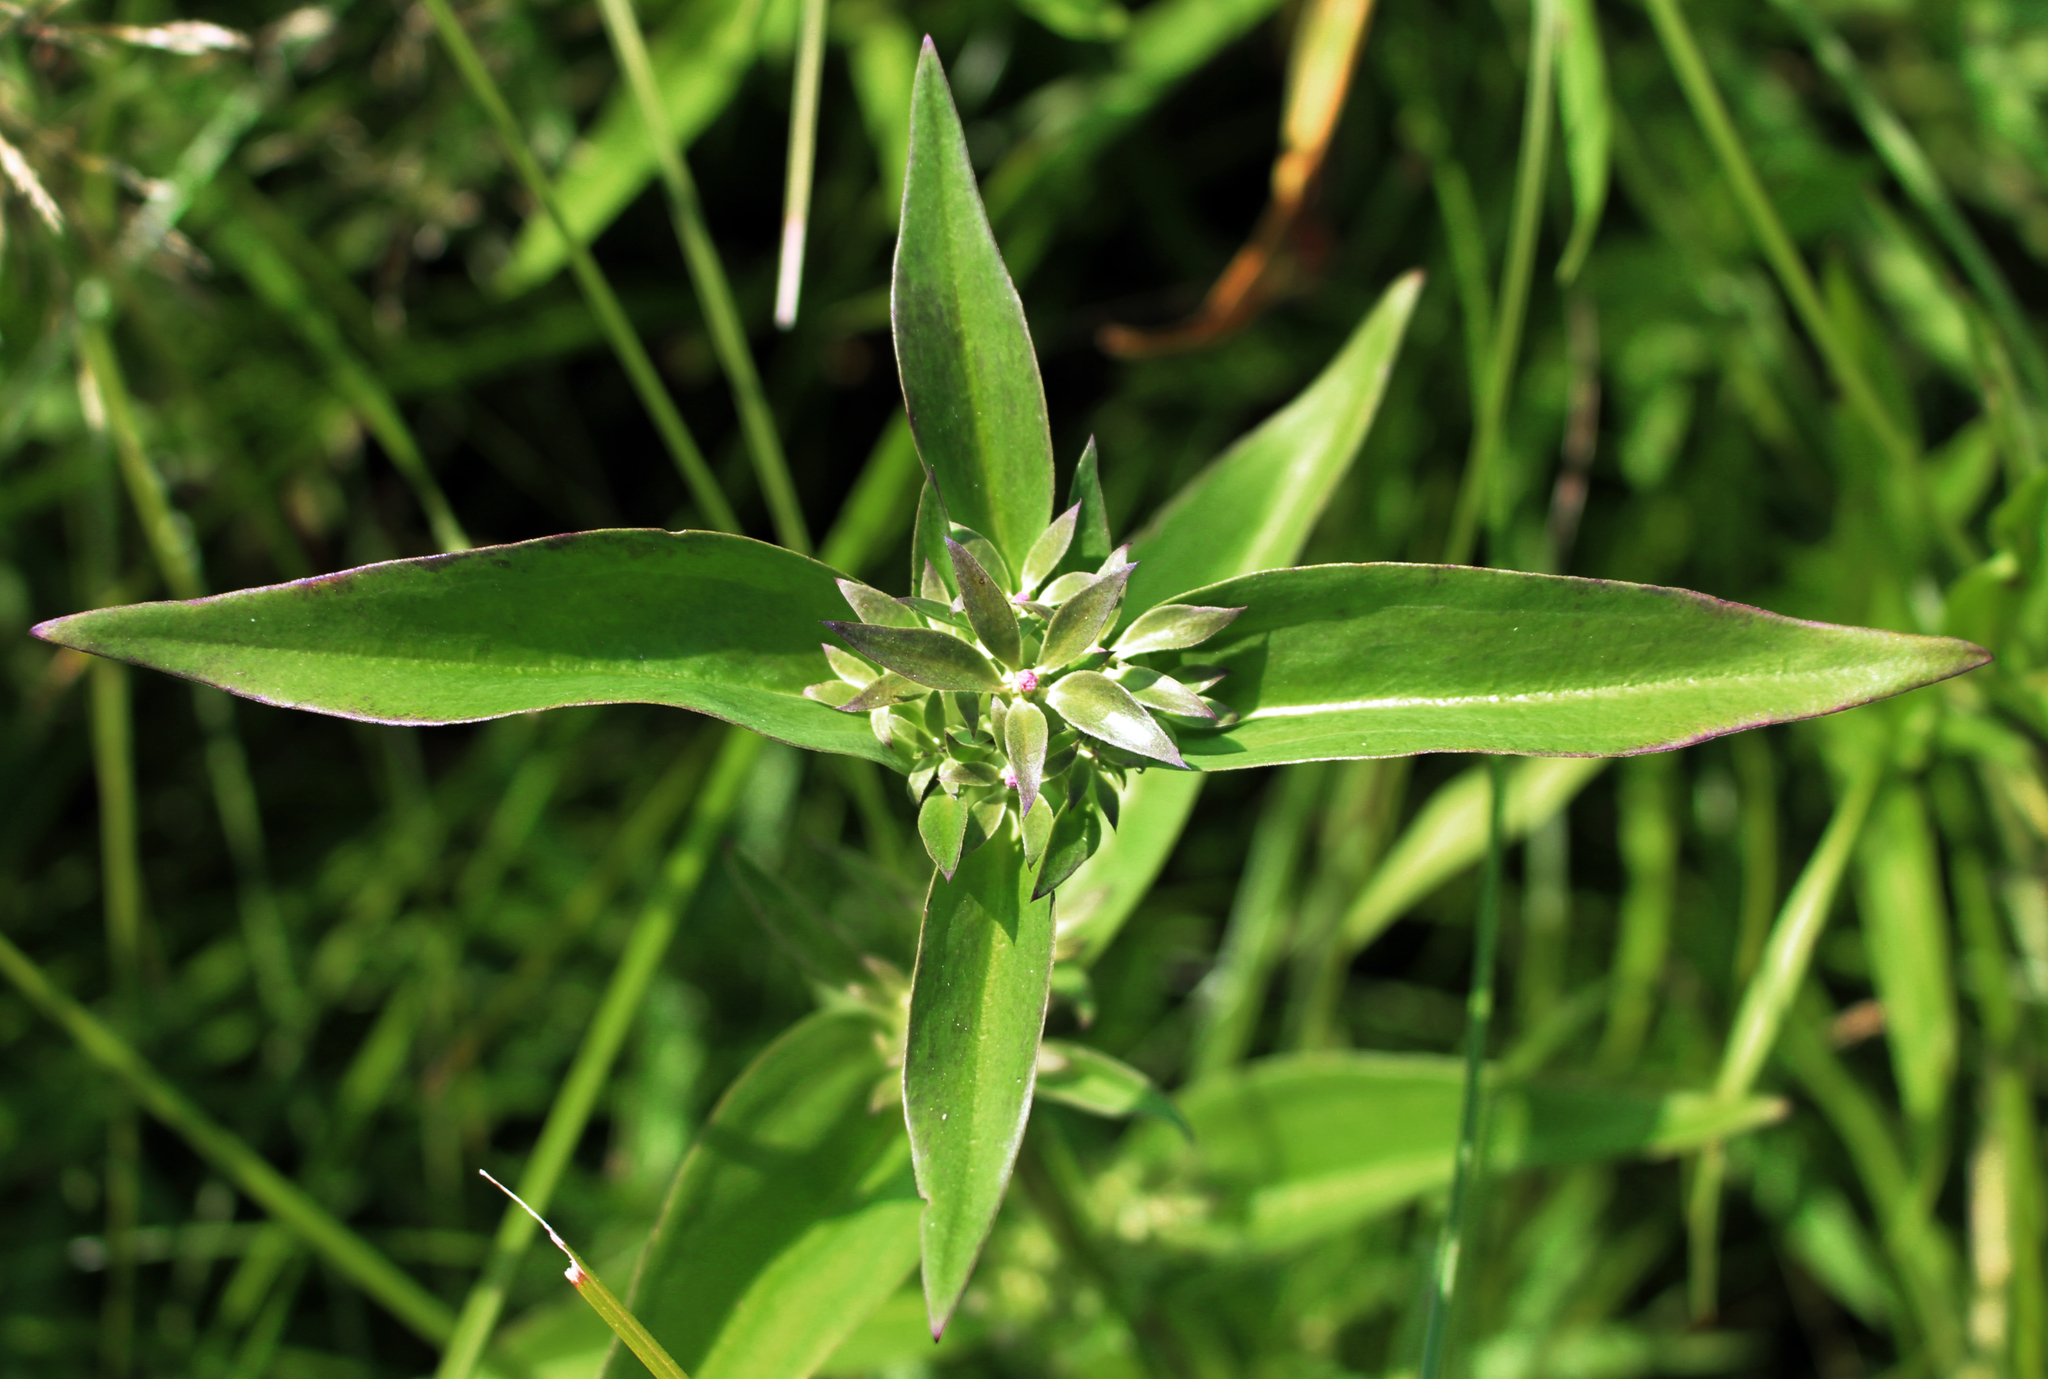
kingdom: Plantae
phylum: Tracheophyta
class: Magnoliopsida
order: Gentianales
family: Gentianaceae
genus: Gentiana
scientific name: Gentiana andrewsii
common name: Bottle gentian
